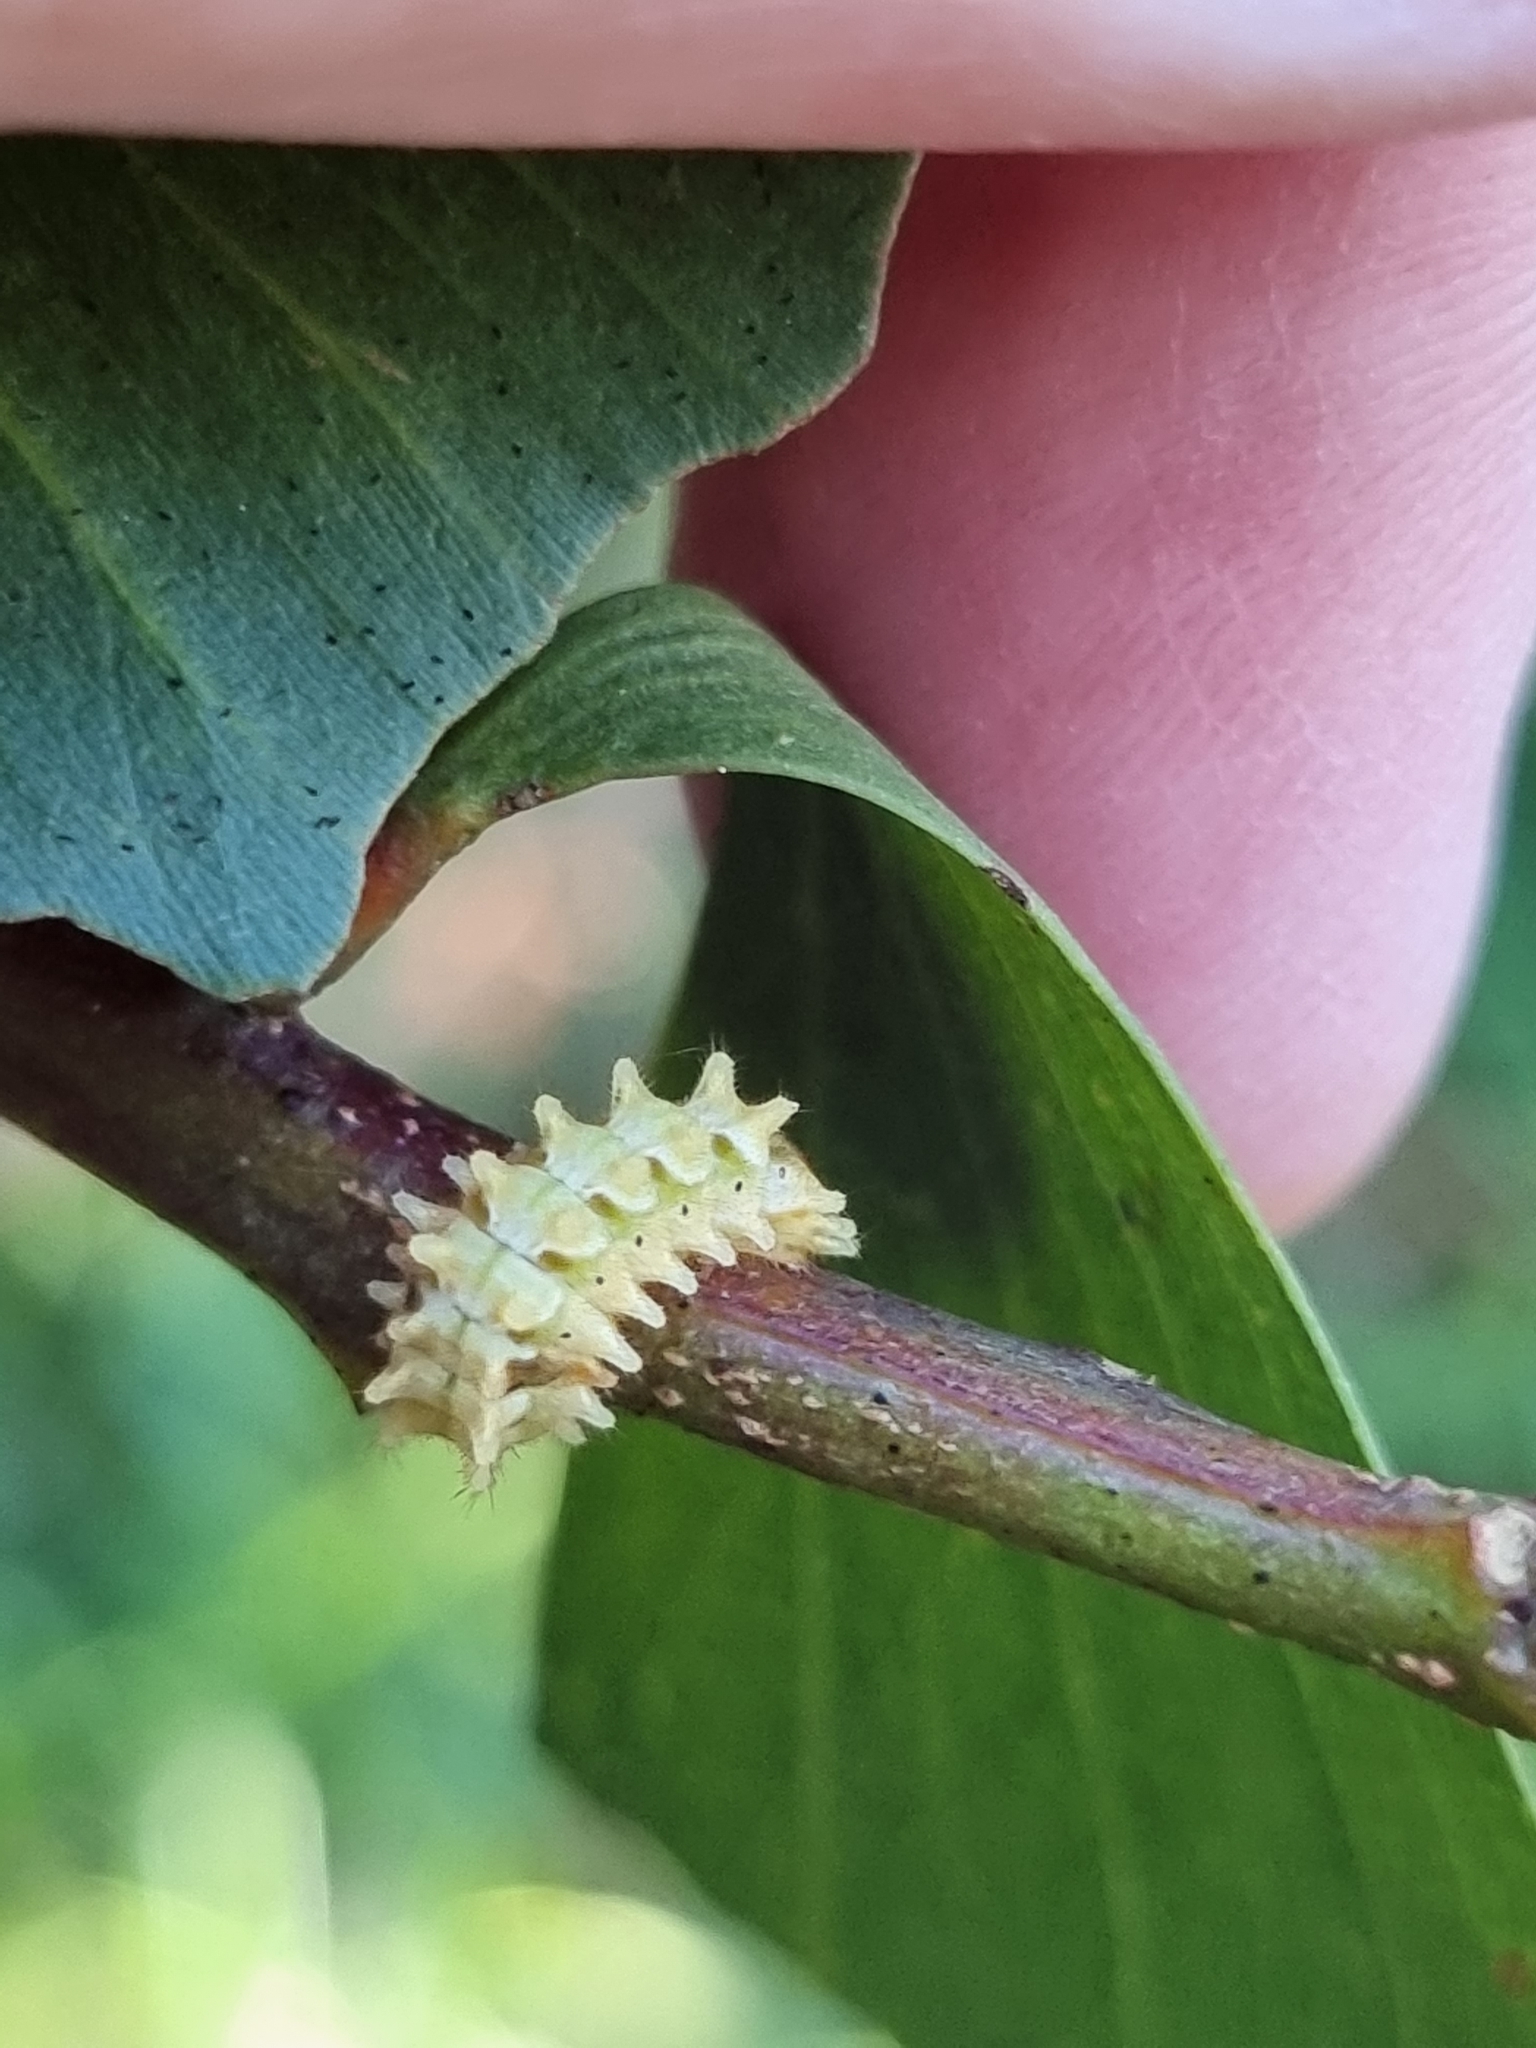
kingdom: Animalia
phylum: Arthropoda
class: Insecta
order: Lepidoptera
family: Lycaenidae
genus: Rapala
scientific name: Rapala varuna
